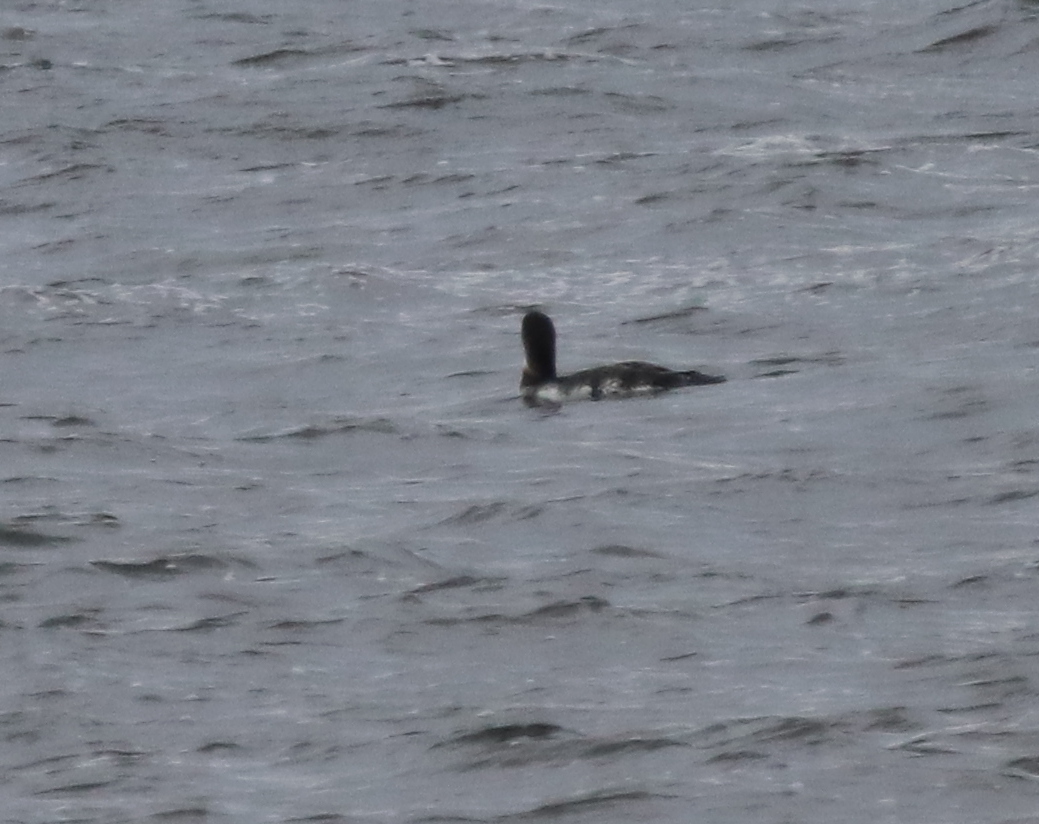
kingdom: Animalia
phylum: Chordata
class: Aves
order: Gaviiformes
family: Gaviidae
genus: Gavia
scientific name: Gavia immer
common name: Common loon
